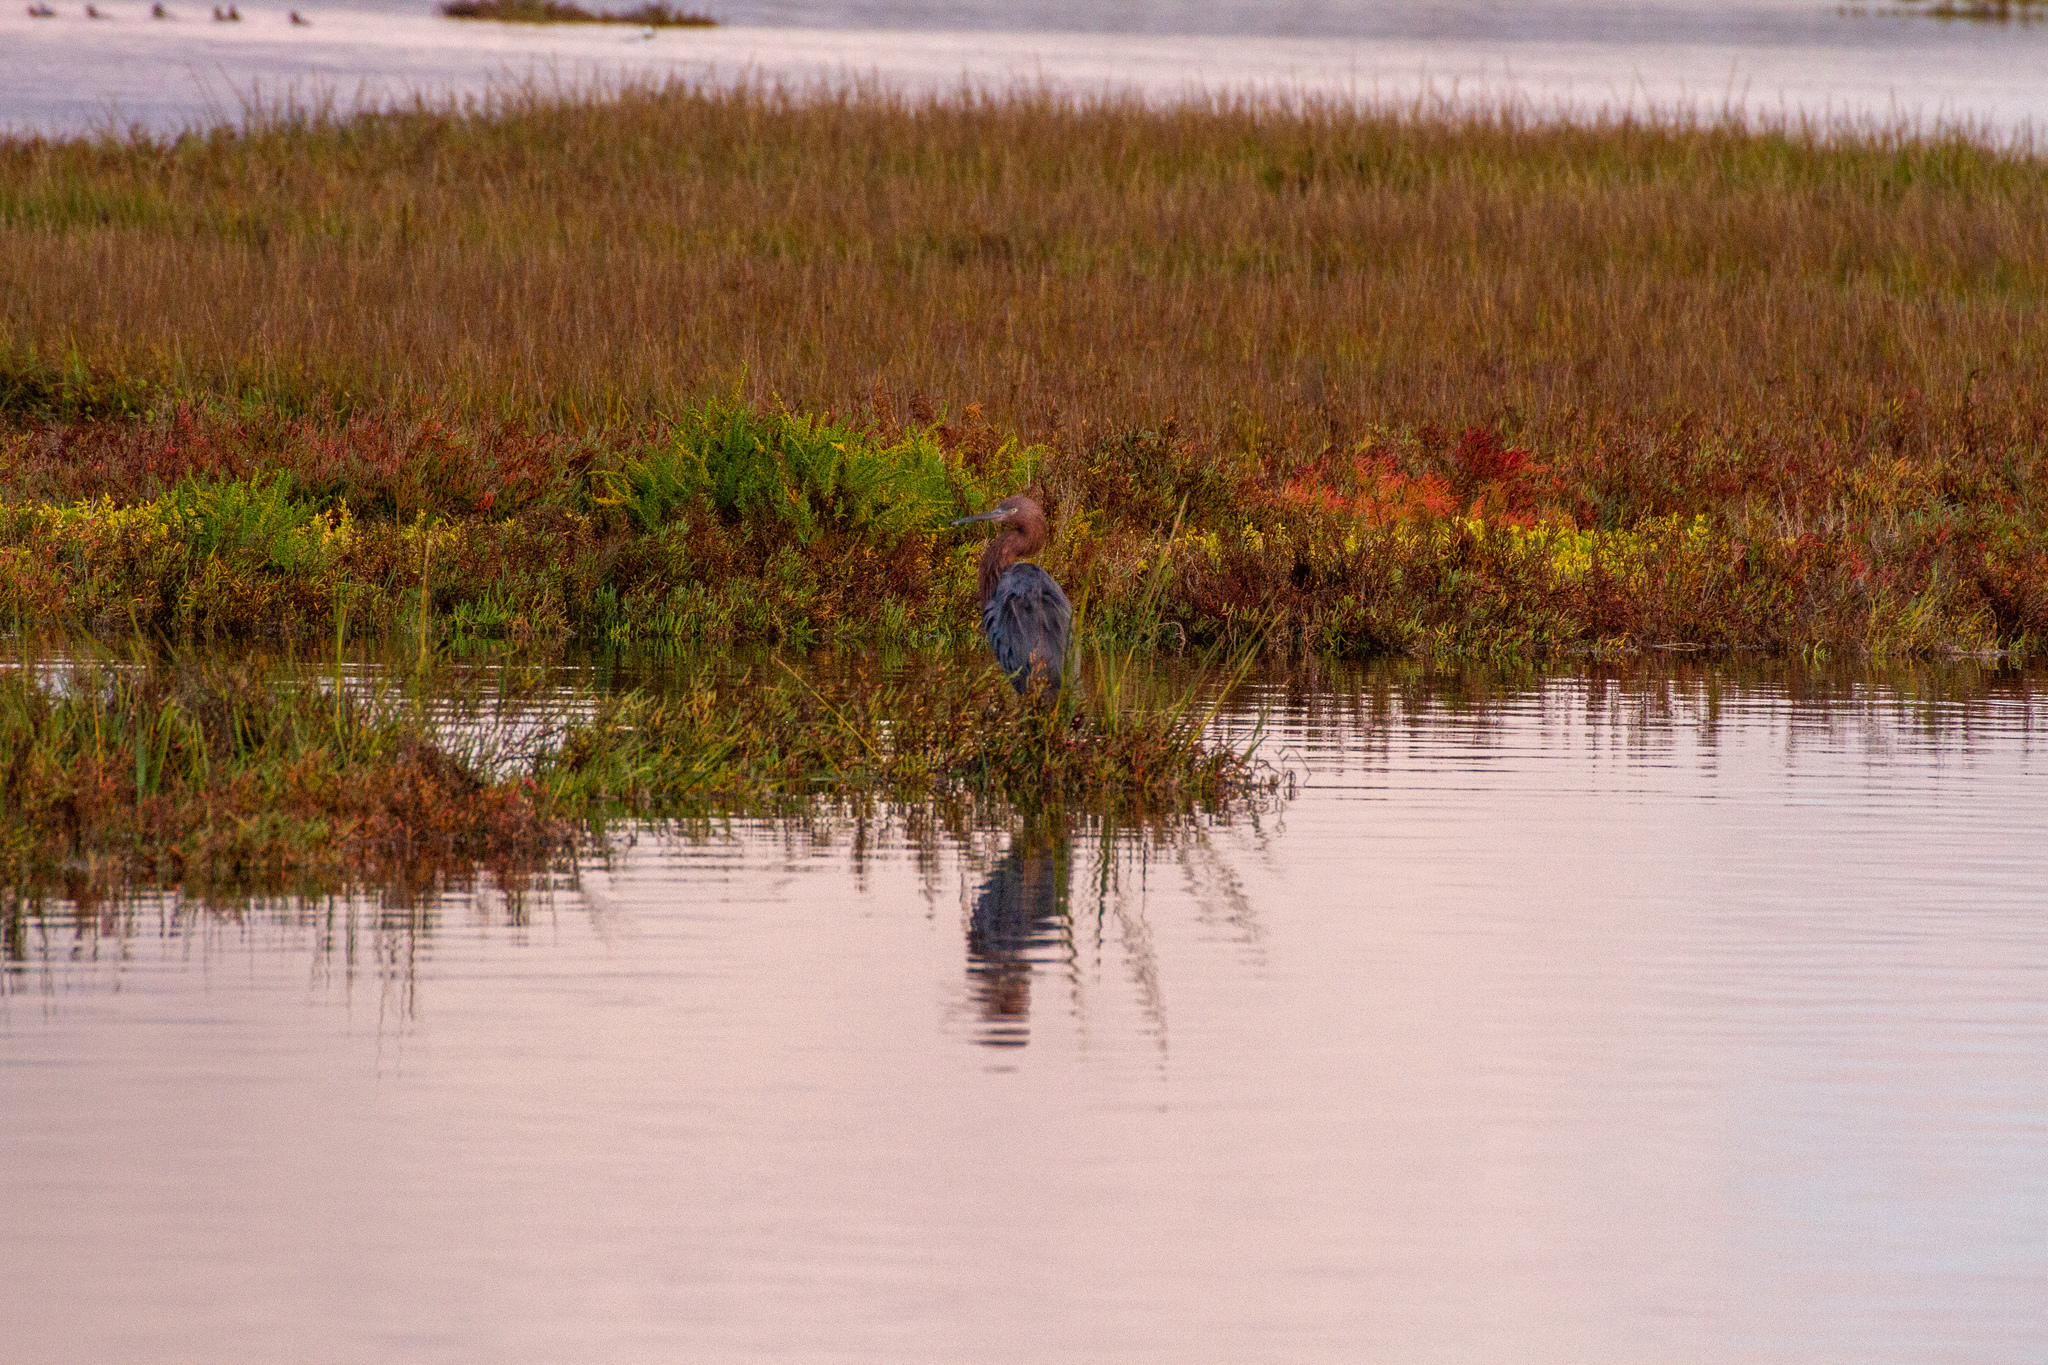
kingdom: Animalia
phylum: Chordata
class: Aves
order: Pelecaniformes
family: Ardeidae
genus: Egretta
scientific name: Egretta rufescens
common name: Reddish egret
